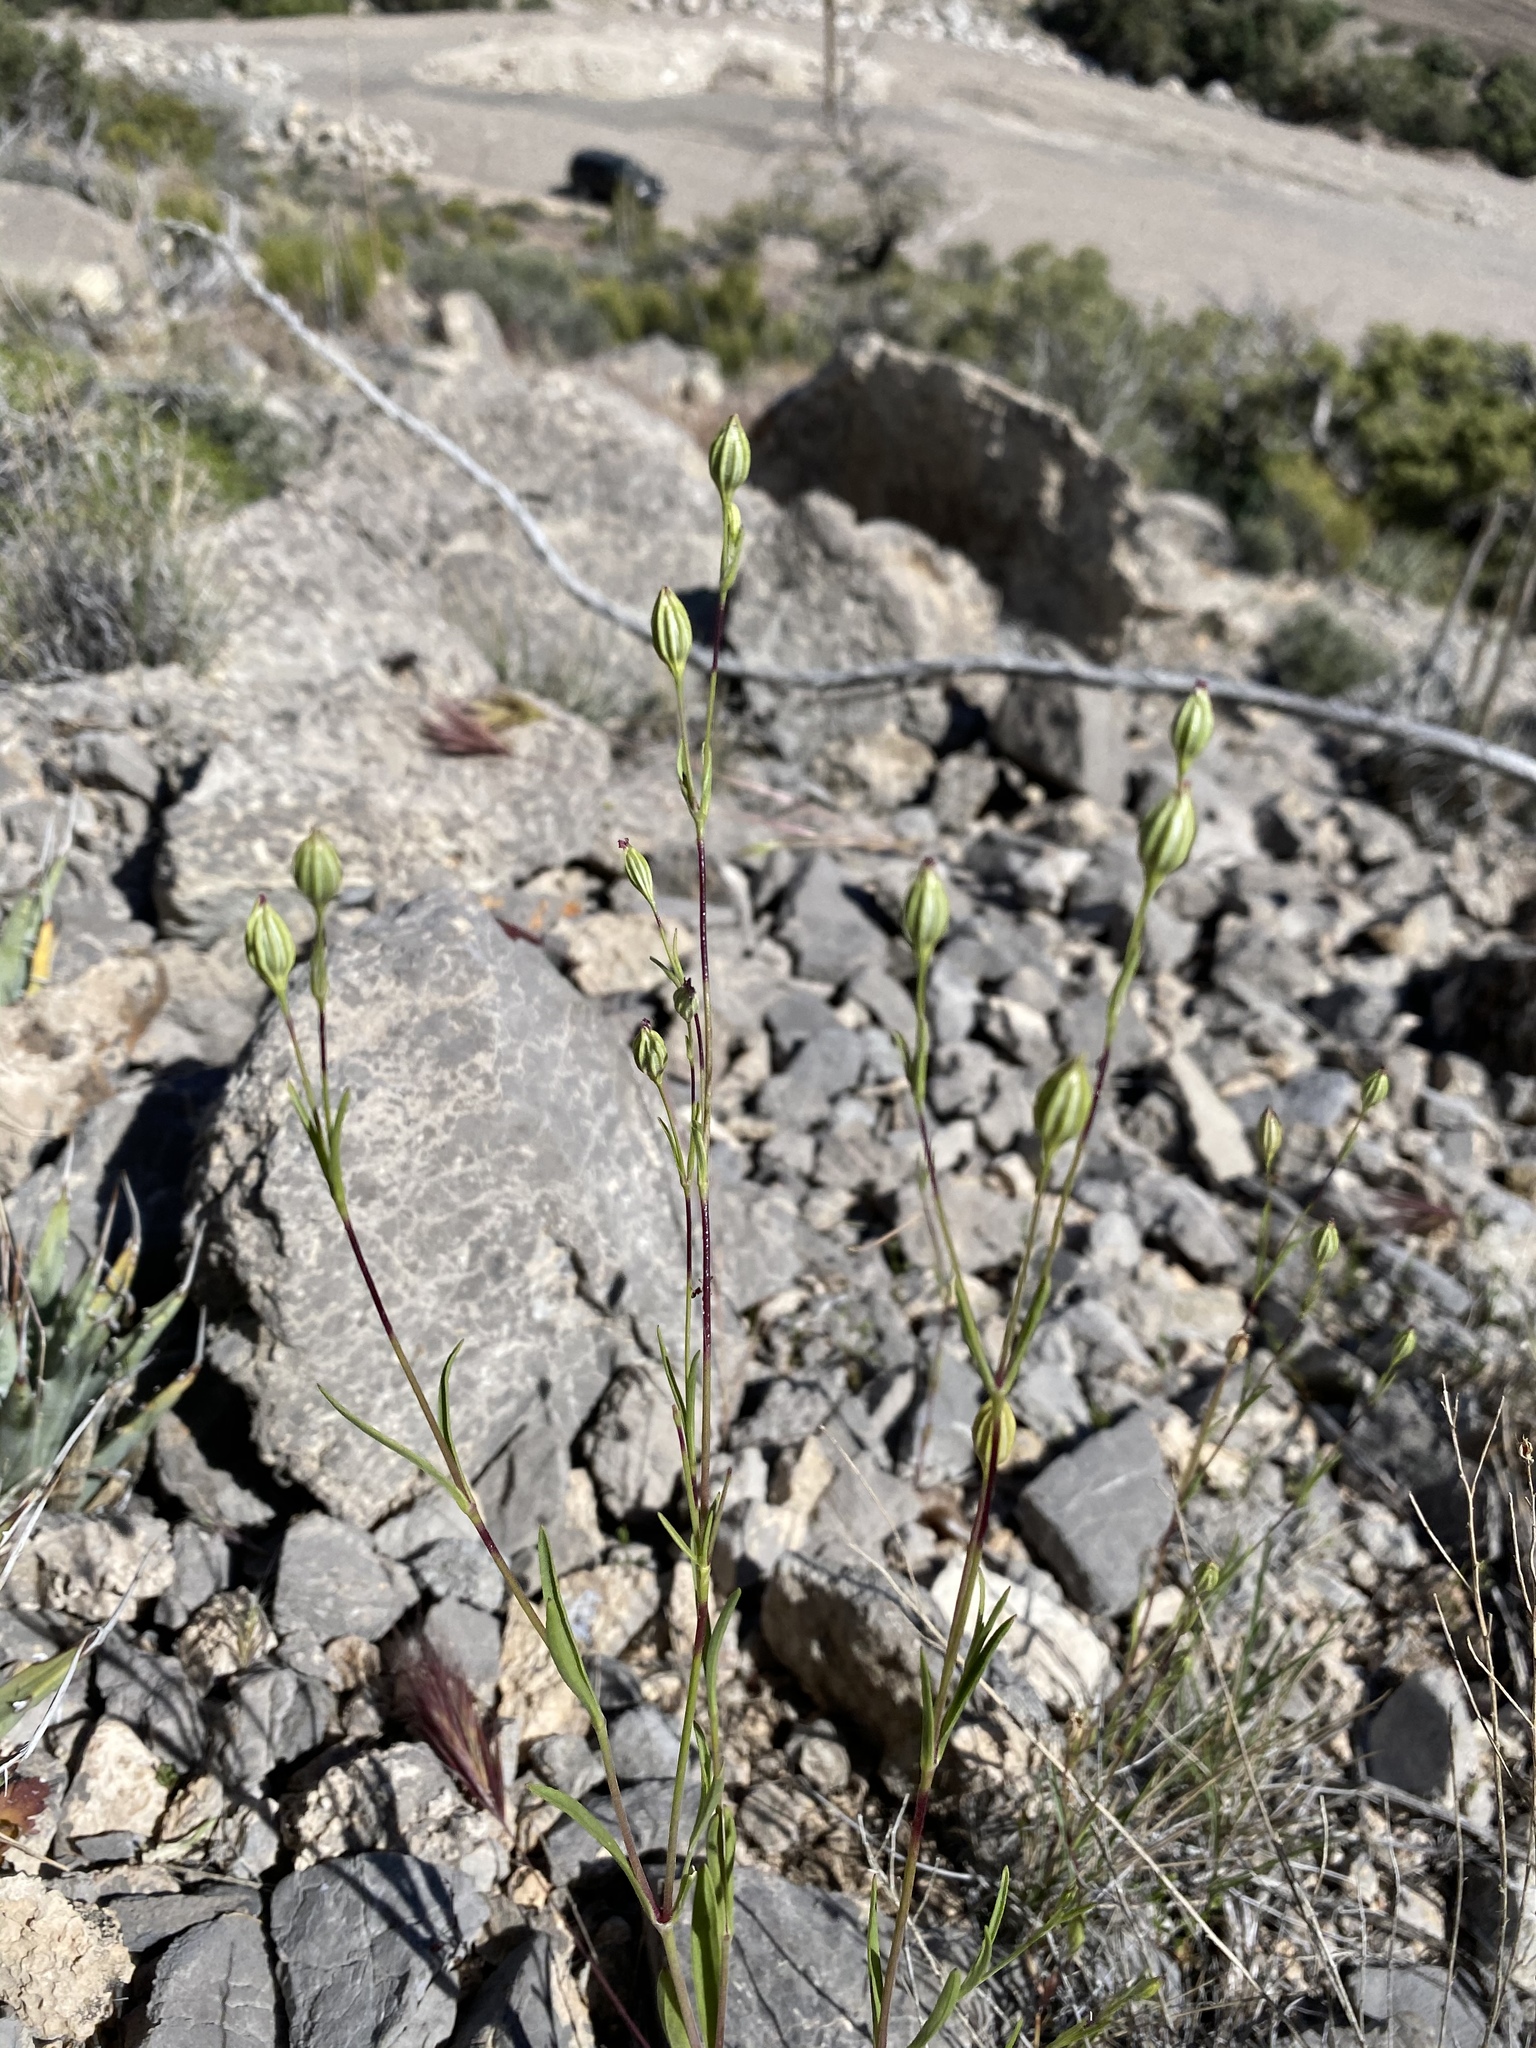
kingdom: Plantae
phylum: Tracheophyta
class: Magnoliopsida
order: Caryophyllales
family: Caryophyllaceae
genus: Silene
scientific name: Silene antirrhina
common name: Sleepy catchfly
